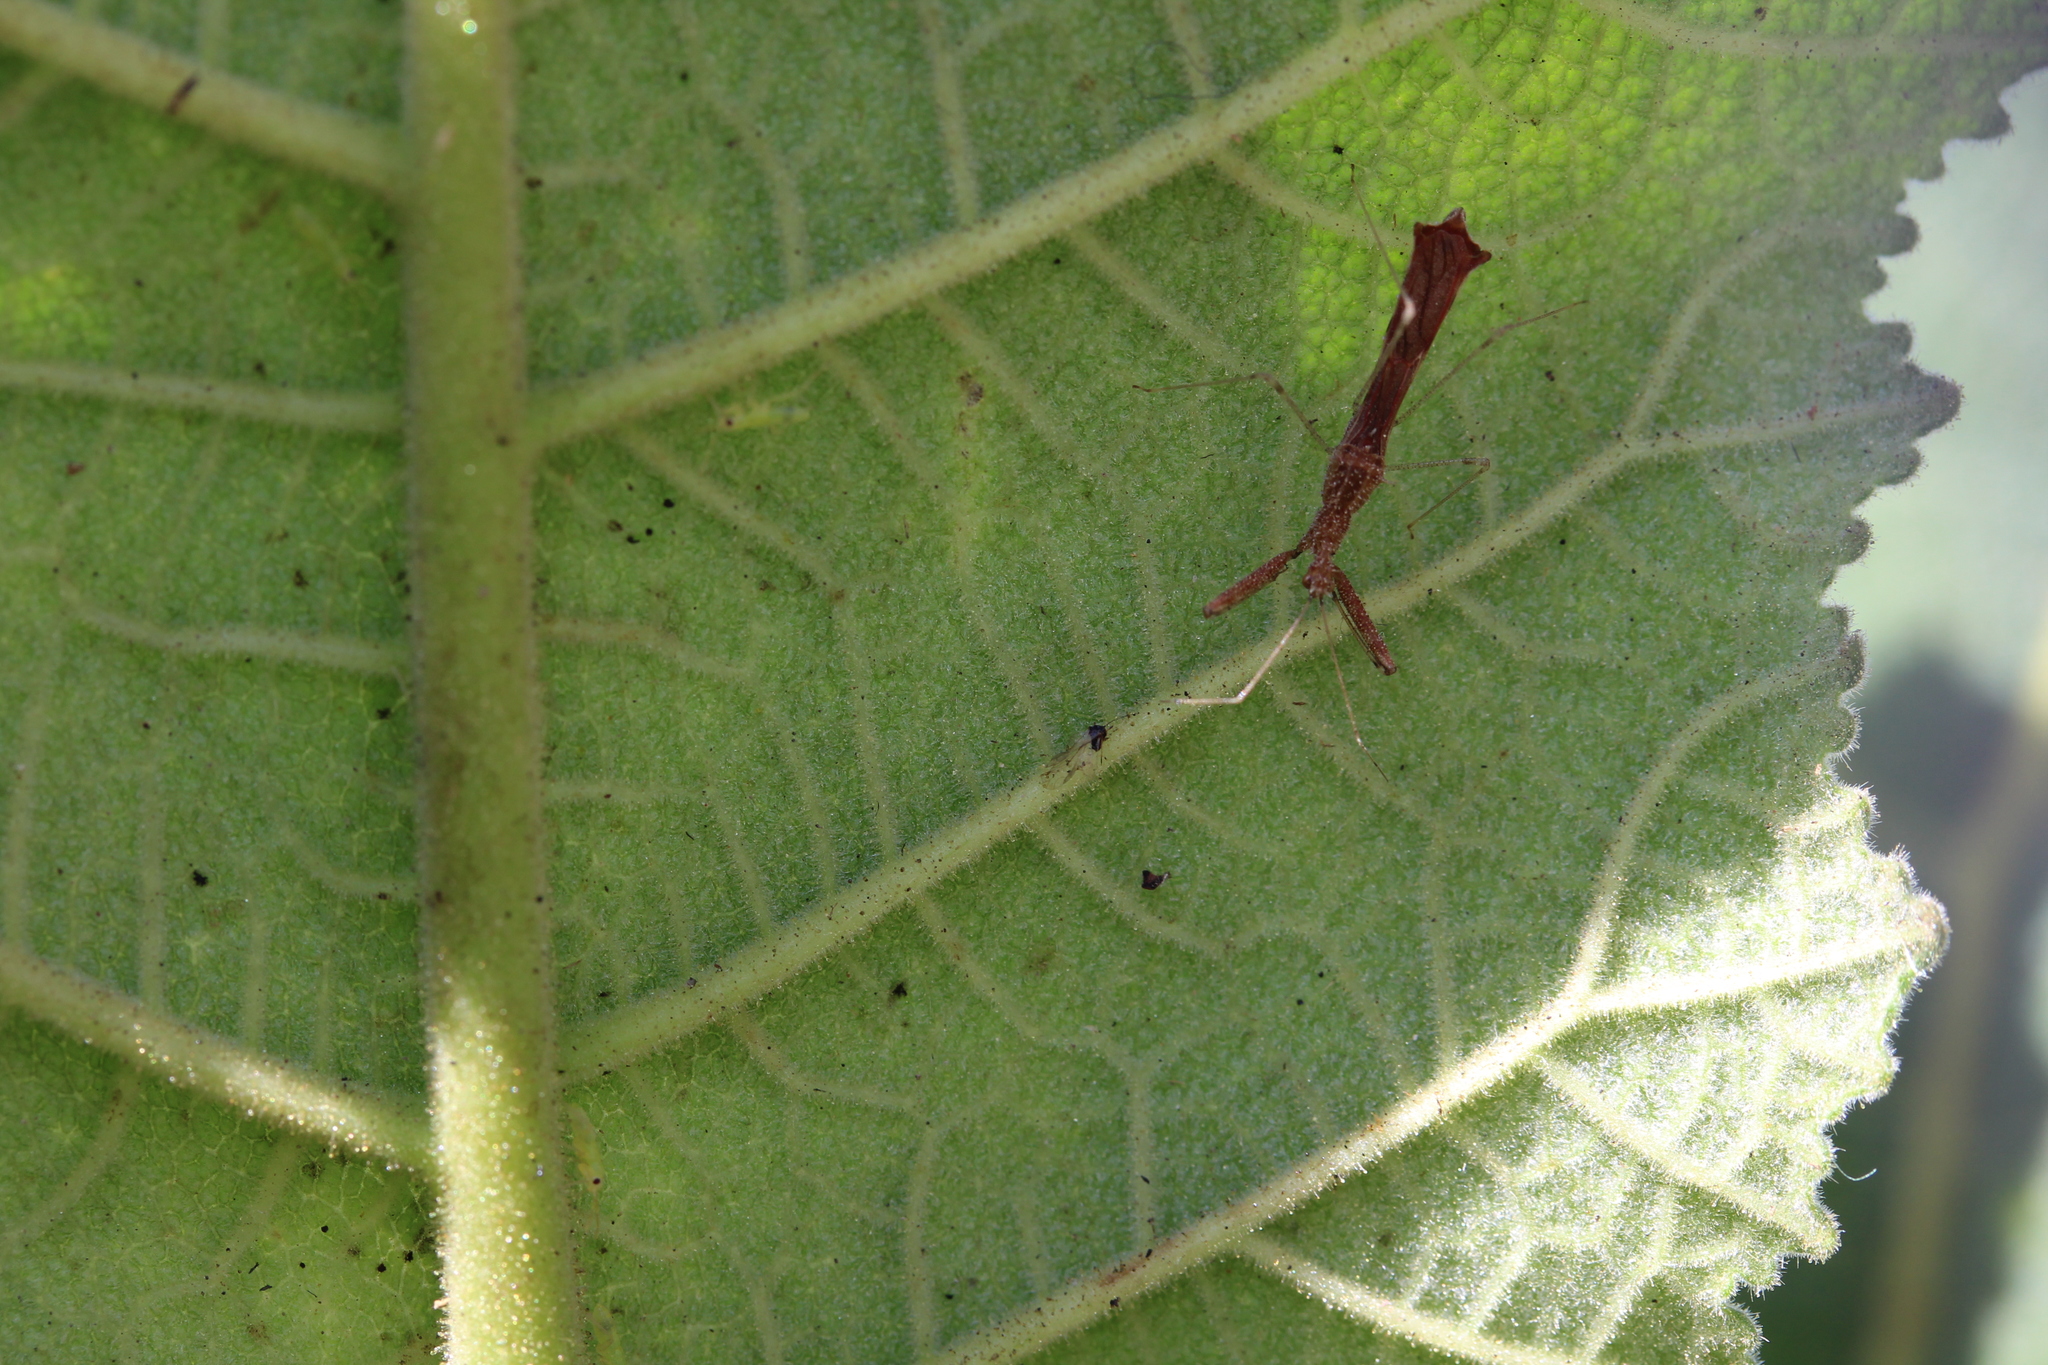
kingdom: Animalia
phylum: Arthropoda
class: Insecta
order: Hemiptera
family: Reduviidae
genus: Bactrodes
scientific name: Bactrodes spinulosus
